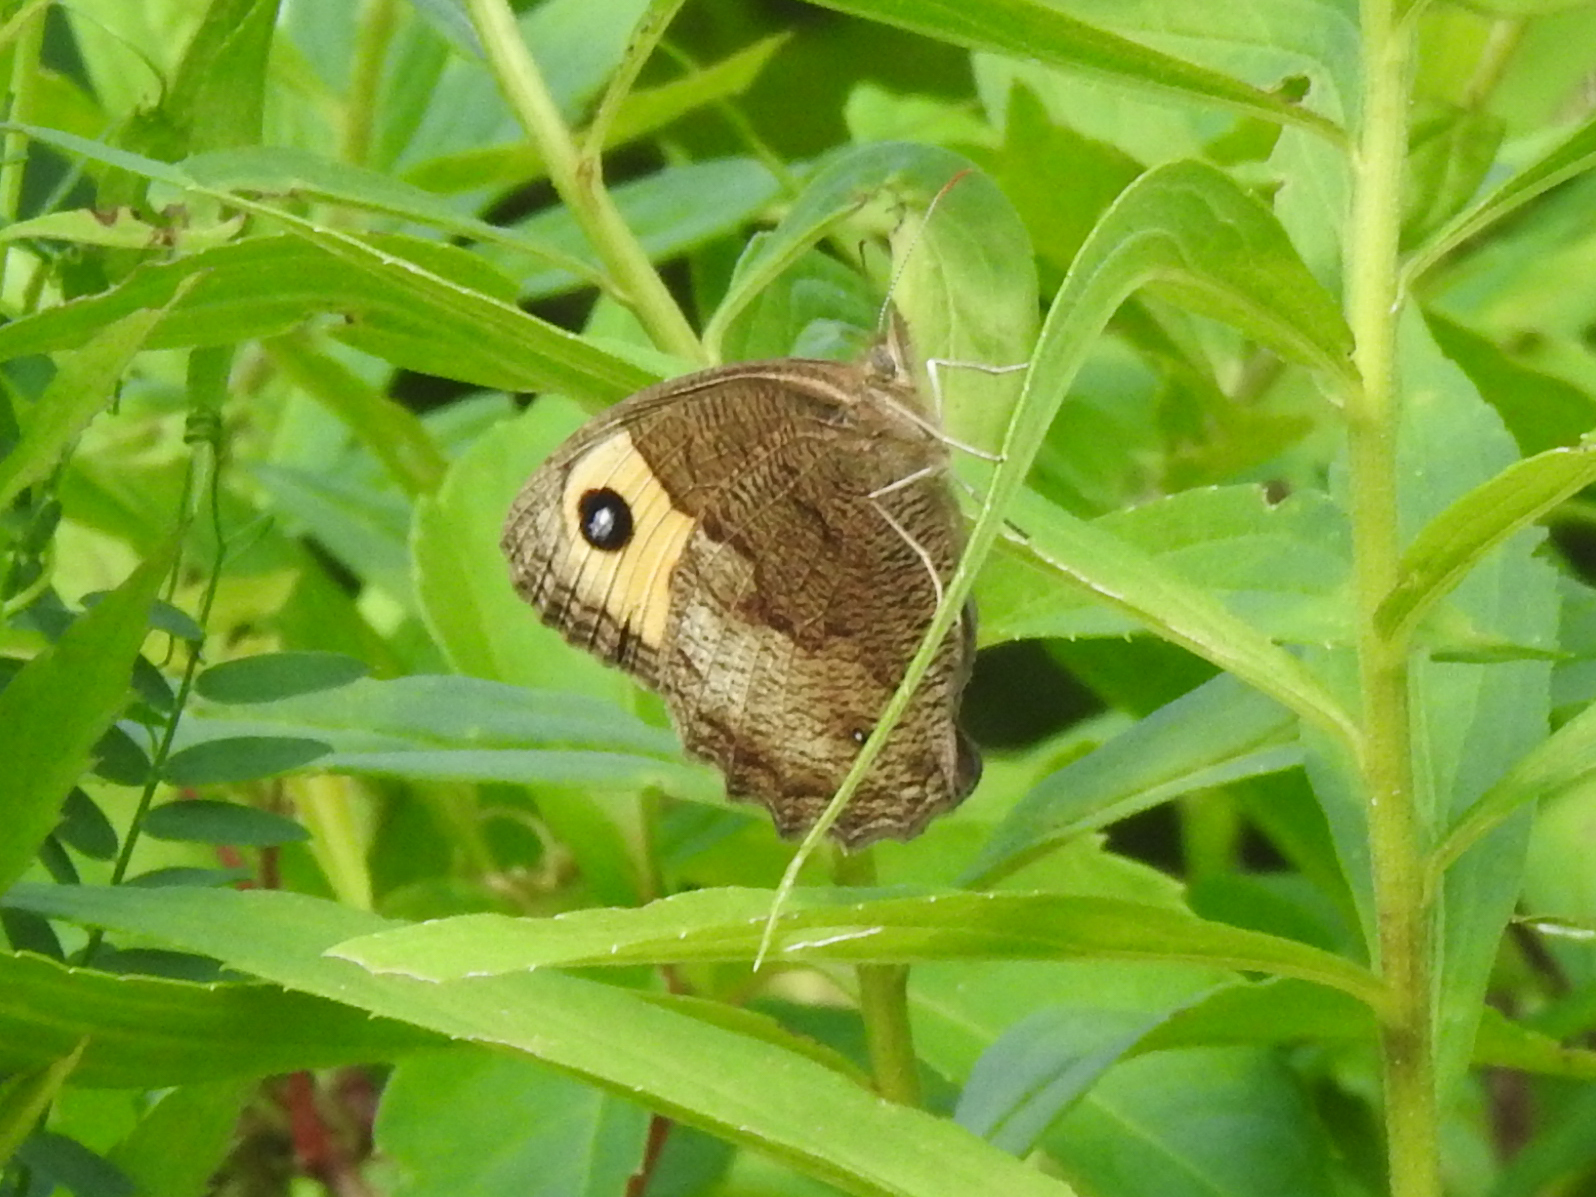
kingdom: Animalia
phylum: Arthropoda
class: Insecta
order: Lepidoptera
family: Nymphalidae
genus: Cercyonis
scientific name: Cercyonis pegala
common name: Common wood-nymph
